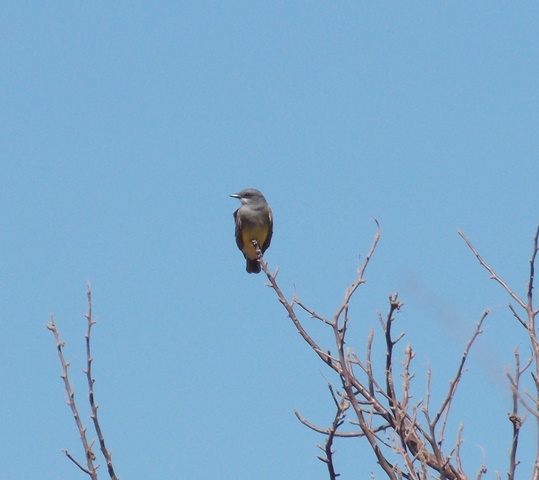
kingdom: Animalia
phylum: Chordata
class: Aves
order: Passeriformes
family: Tyrannidae
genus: Tyrannus
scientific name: Tyrannus vociferans
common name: Cassin's kingbird
